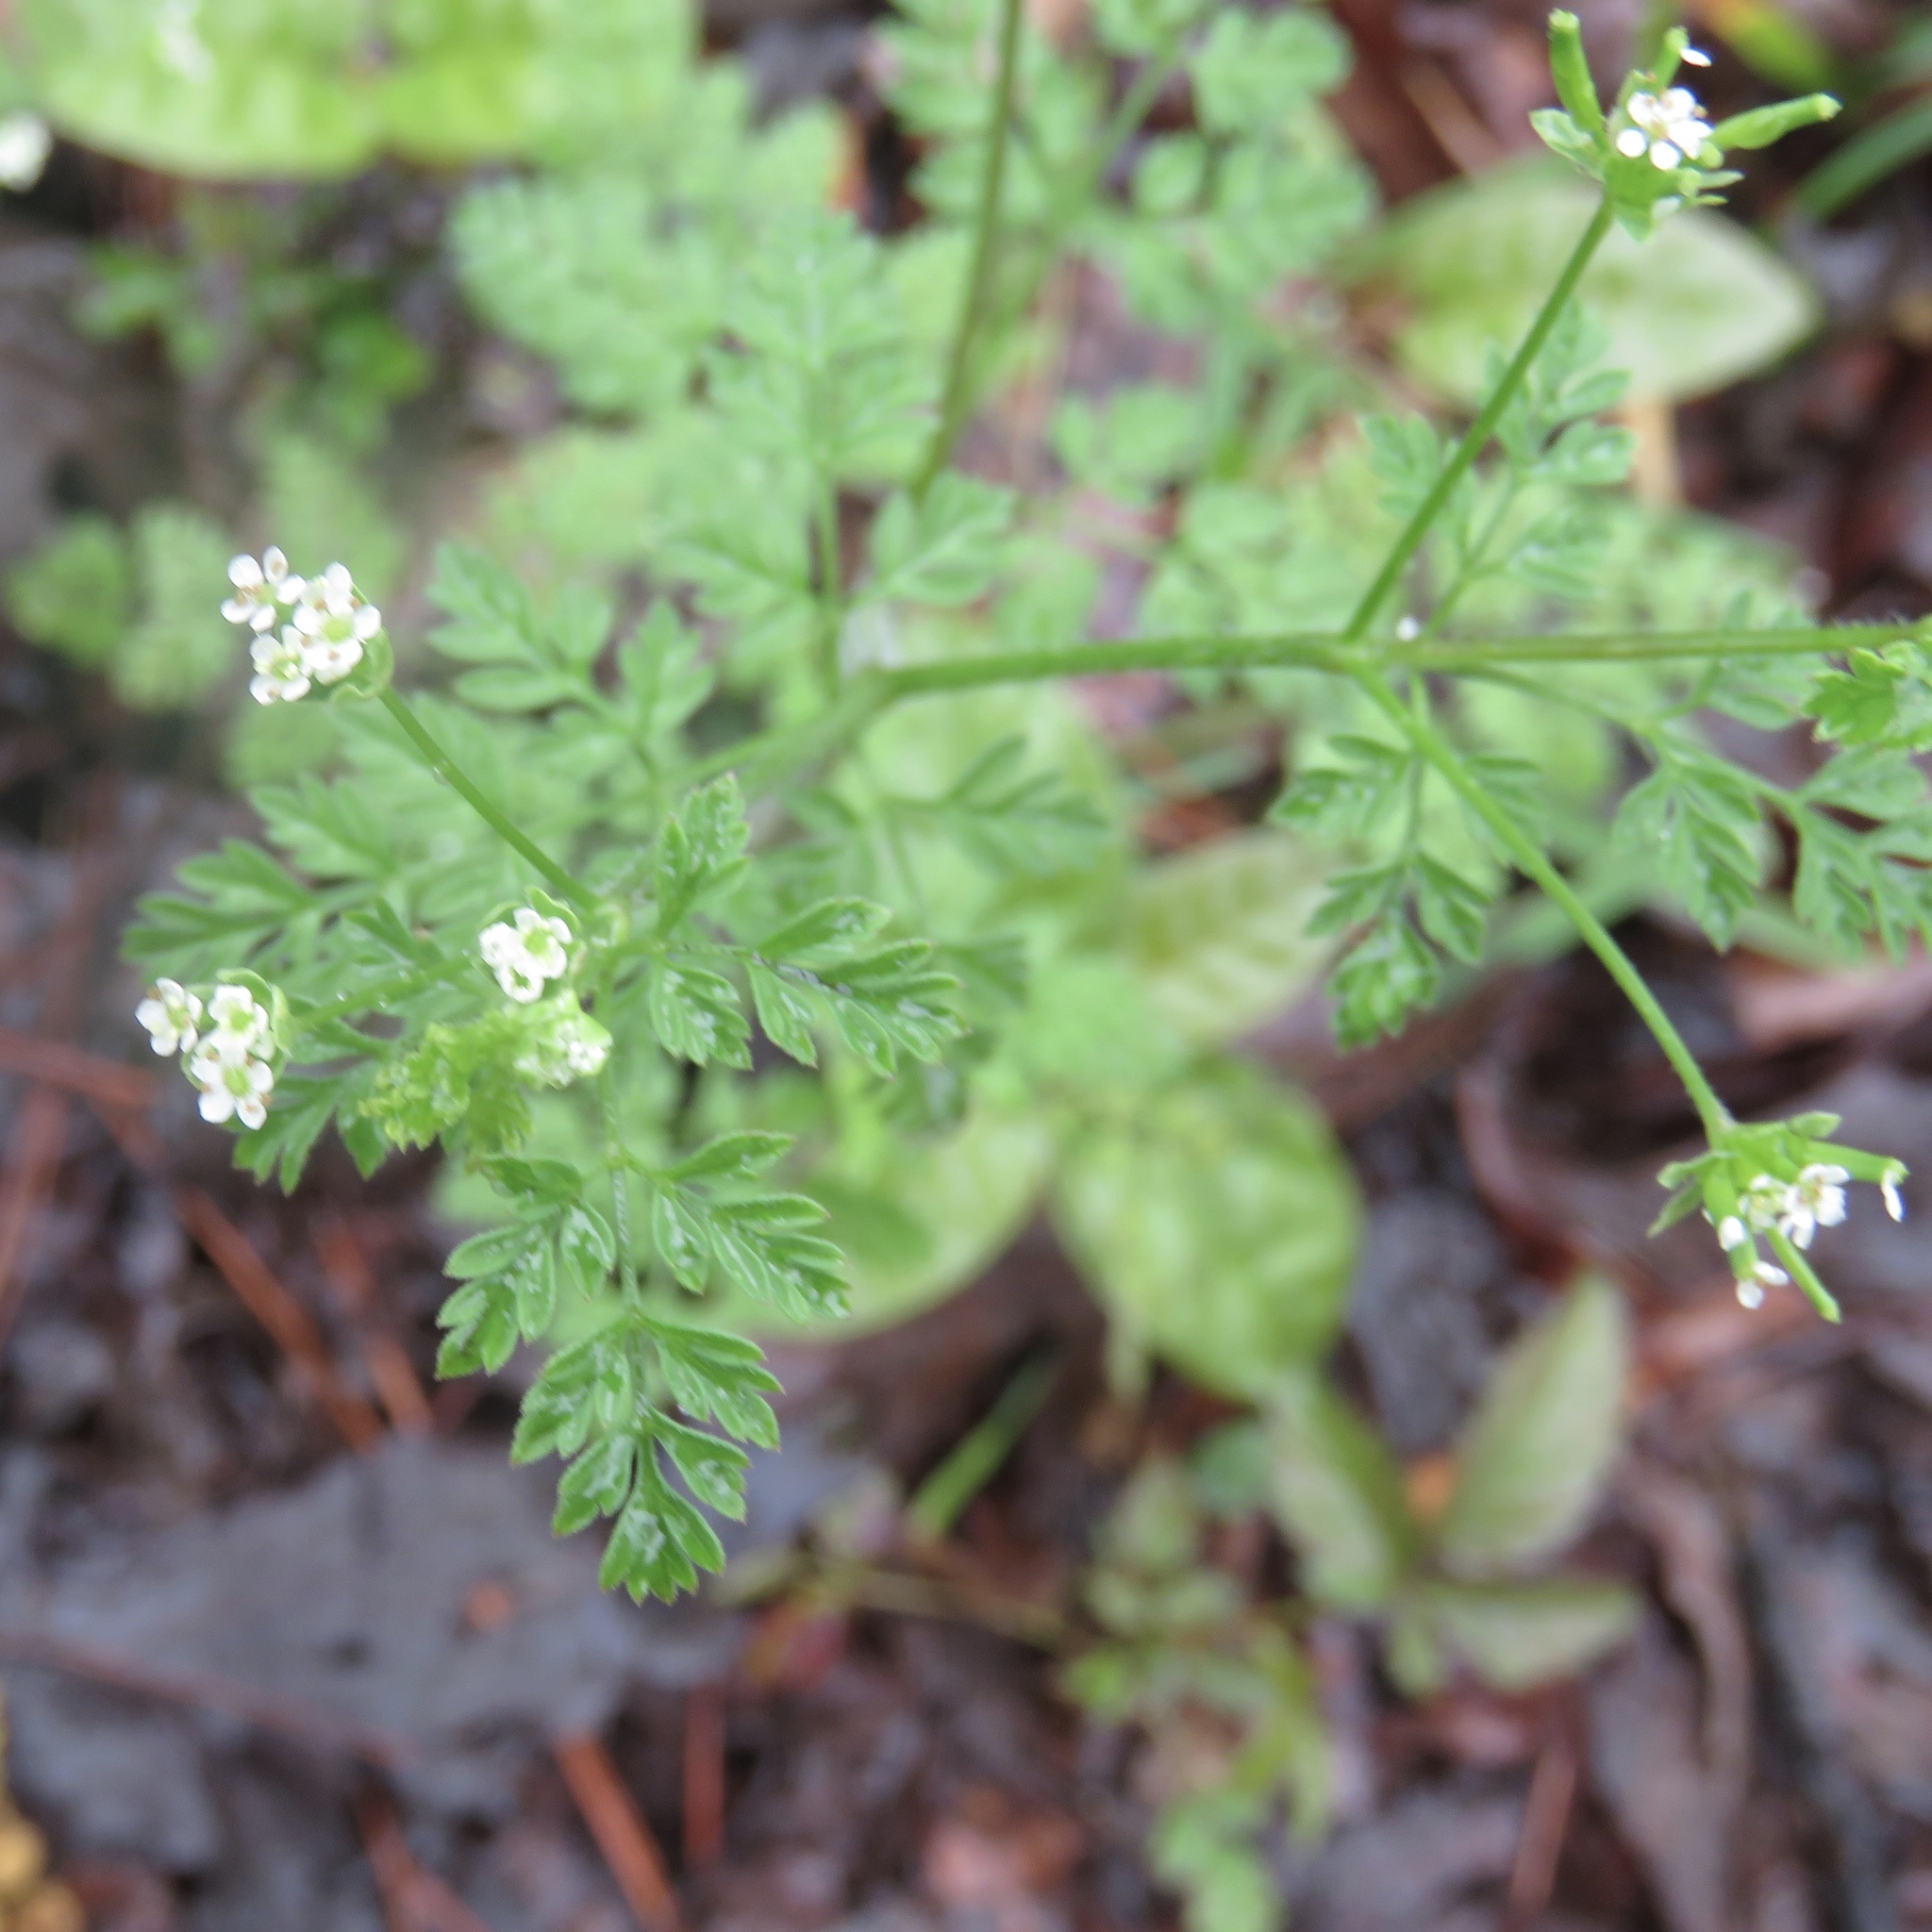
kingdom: Plantae
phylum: Tracheophyta
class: Magnoliopsida
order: Apiales
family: Apiaceae
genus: Chaerophyllum
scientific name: Chaerophyllum tainturieri
